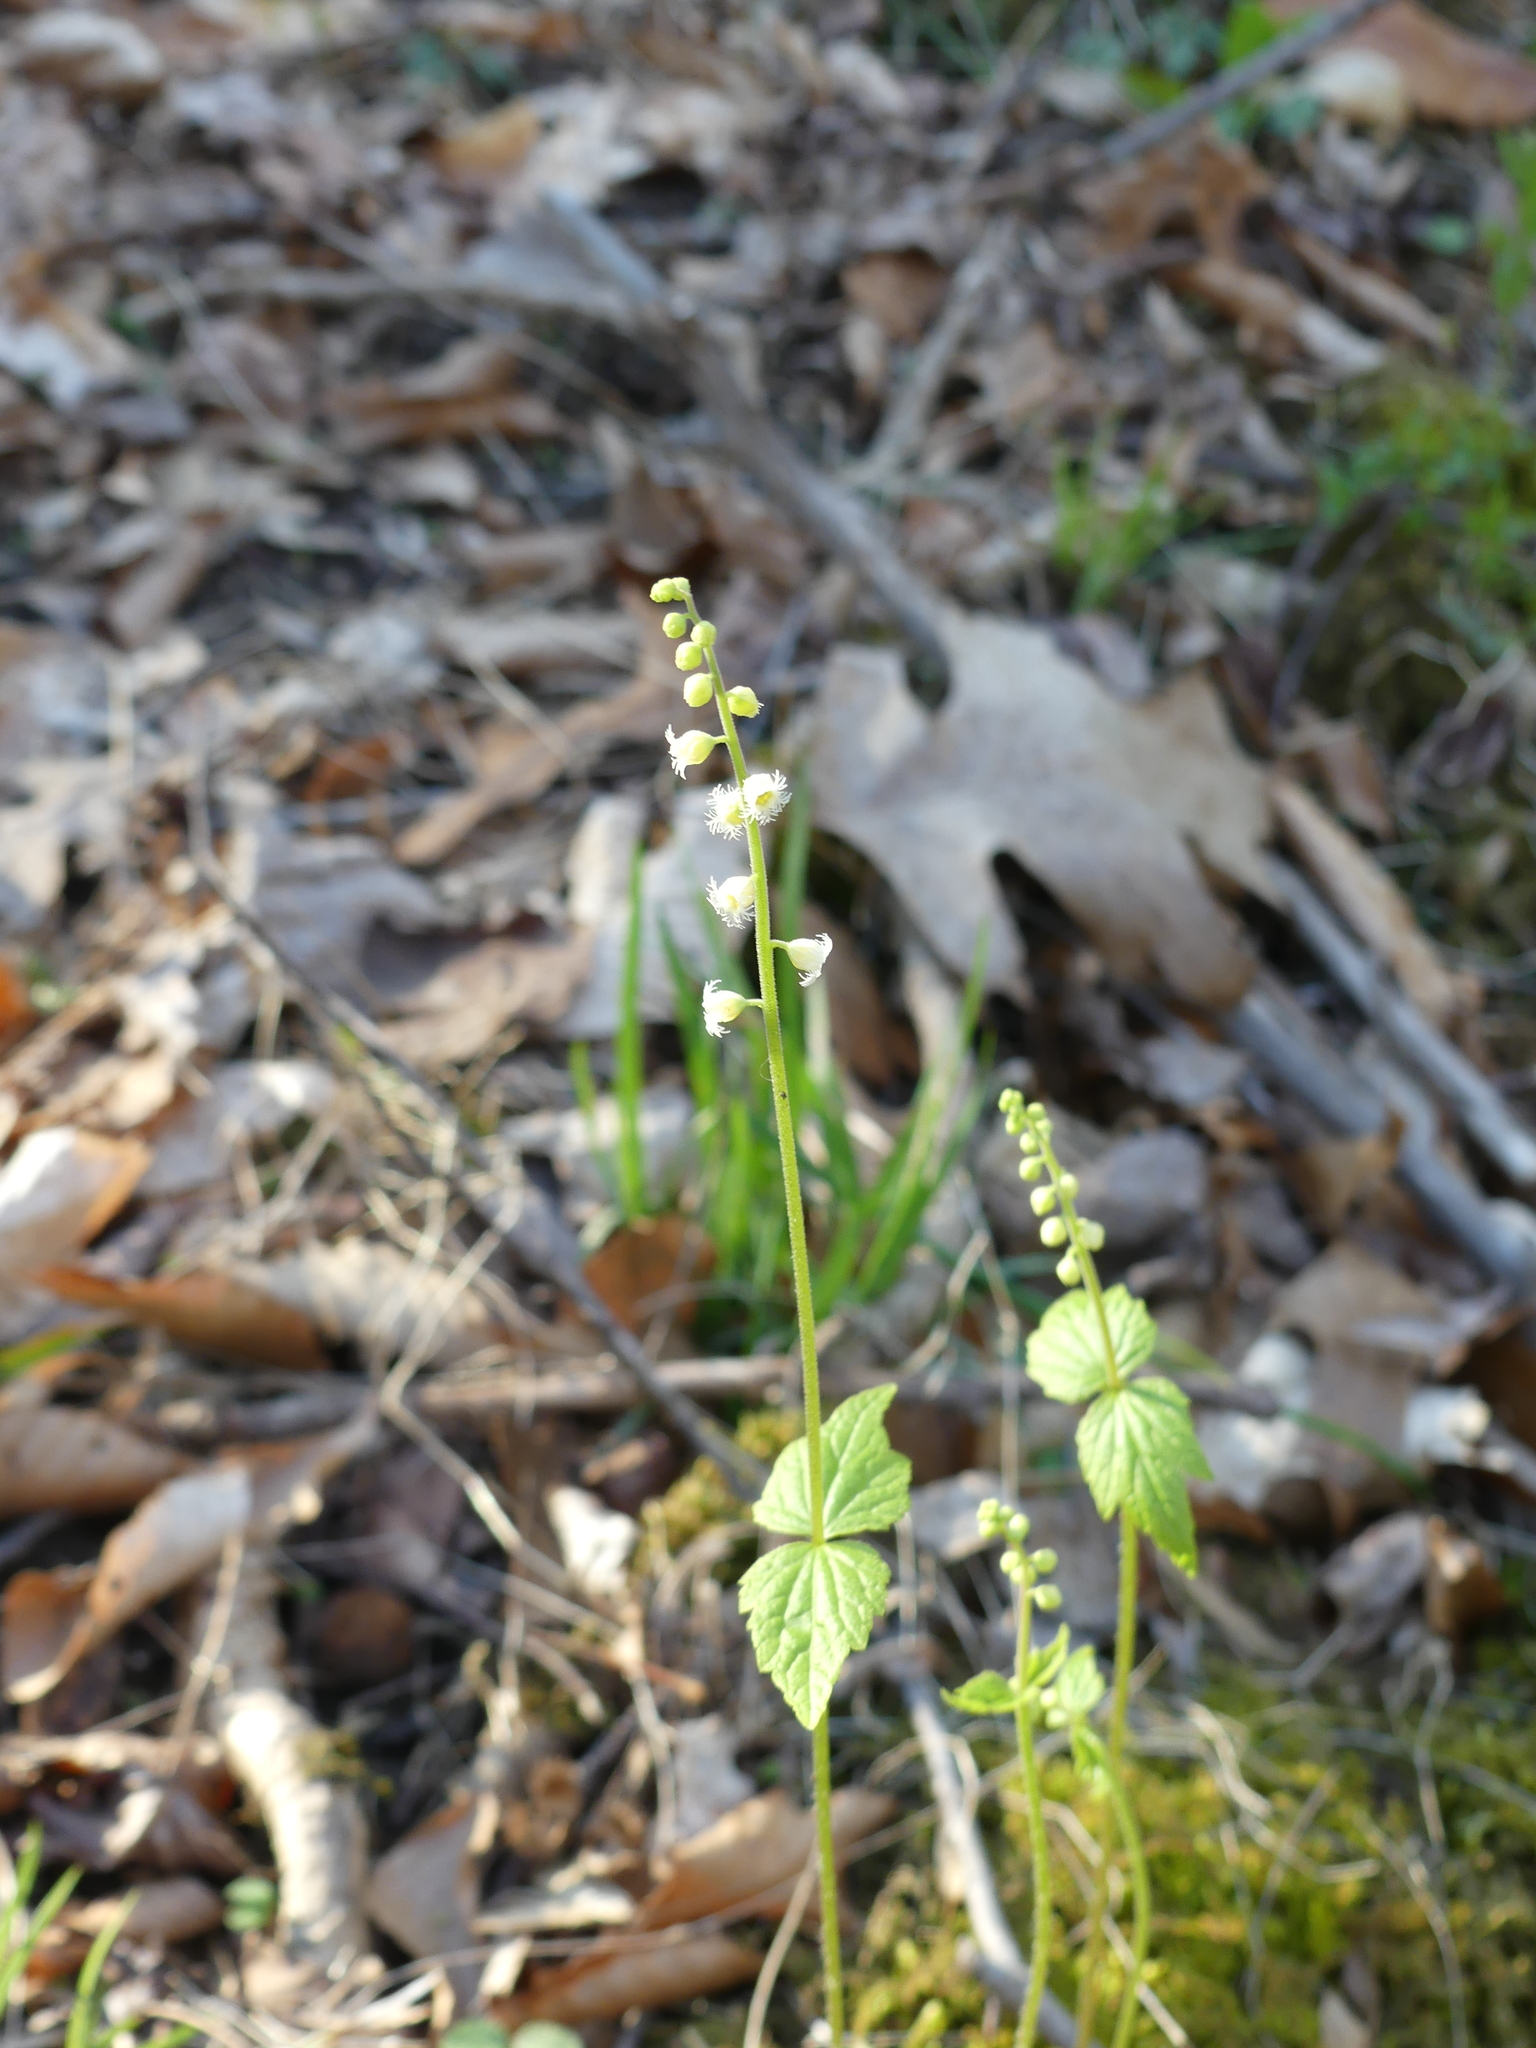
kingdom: Plantae
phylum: Tracheophyta
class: Magnoliopsida
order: Saxifragales
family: Saxifragaceae
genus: Mitella
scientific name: Mitella diphylla
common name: Coolwort
